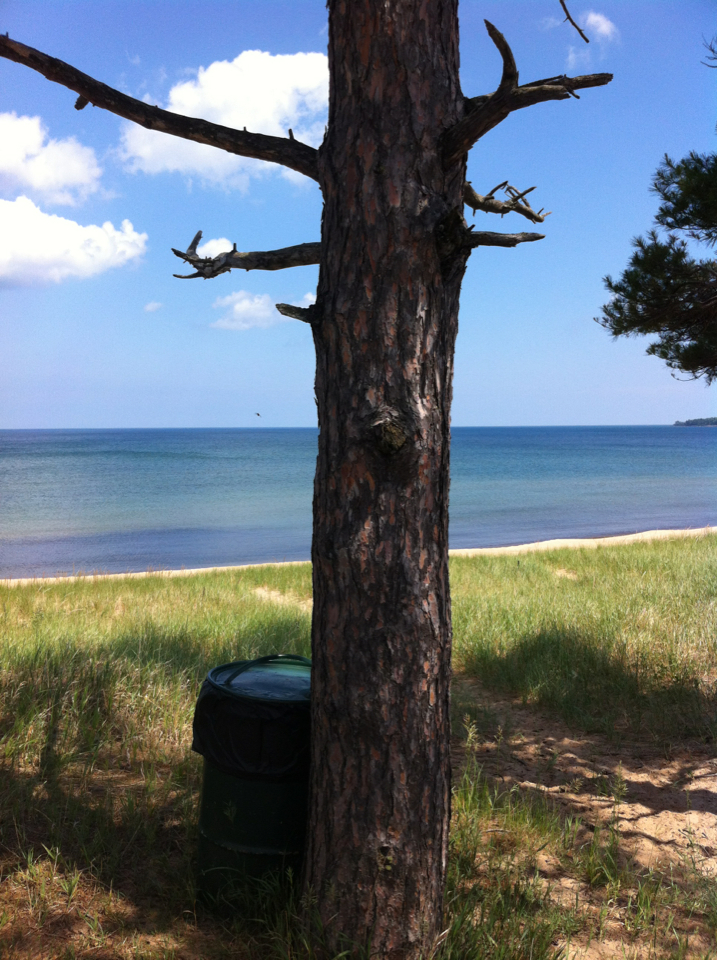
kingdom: Plantae
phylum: Tracheophyta
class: Pinopsida
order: Pinales
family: Pinaceae
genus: Pinus
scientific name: Pinus resinosa
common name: Norway pine
